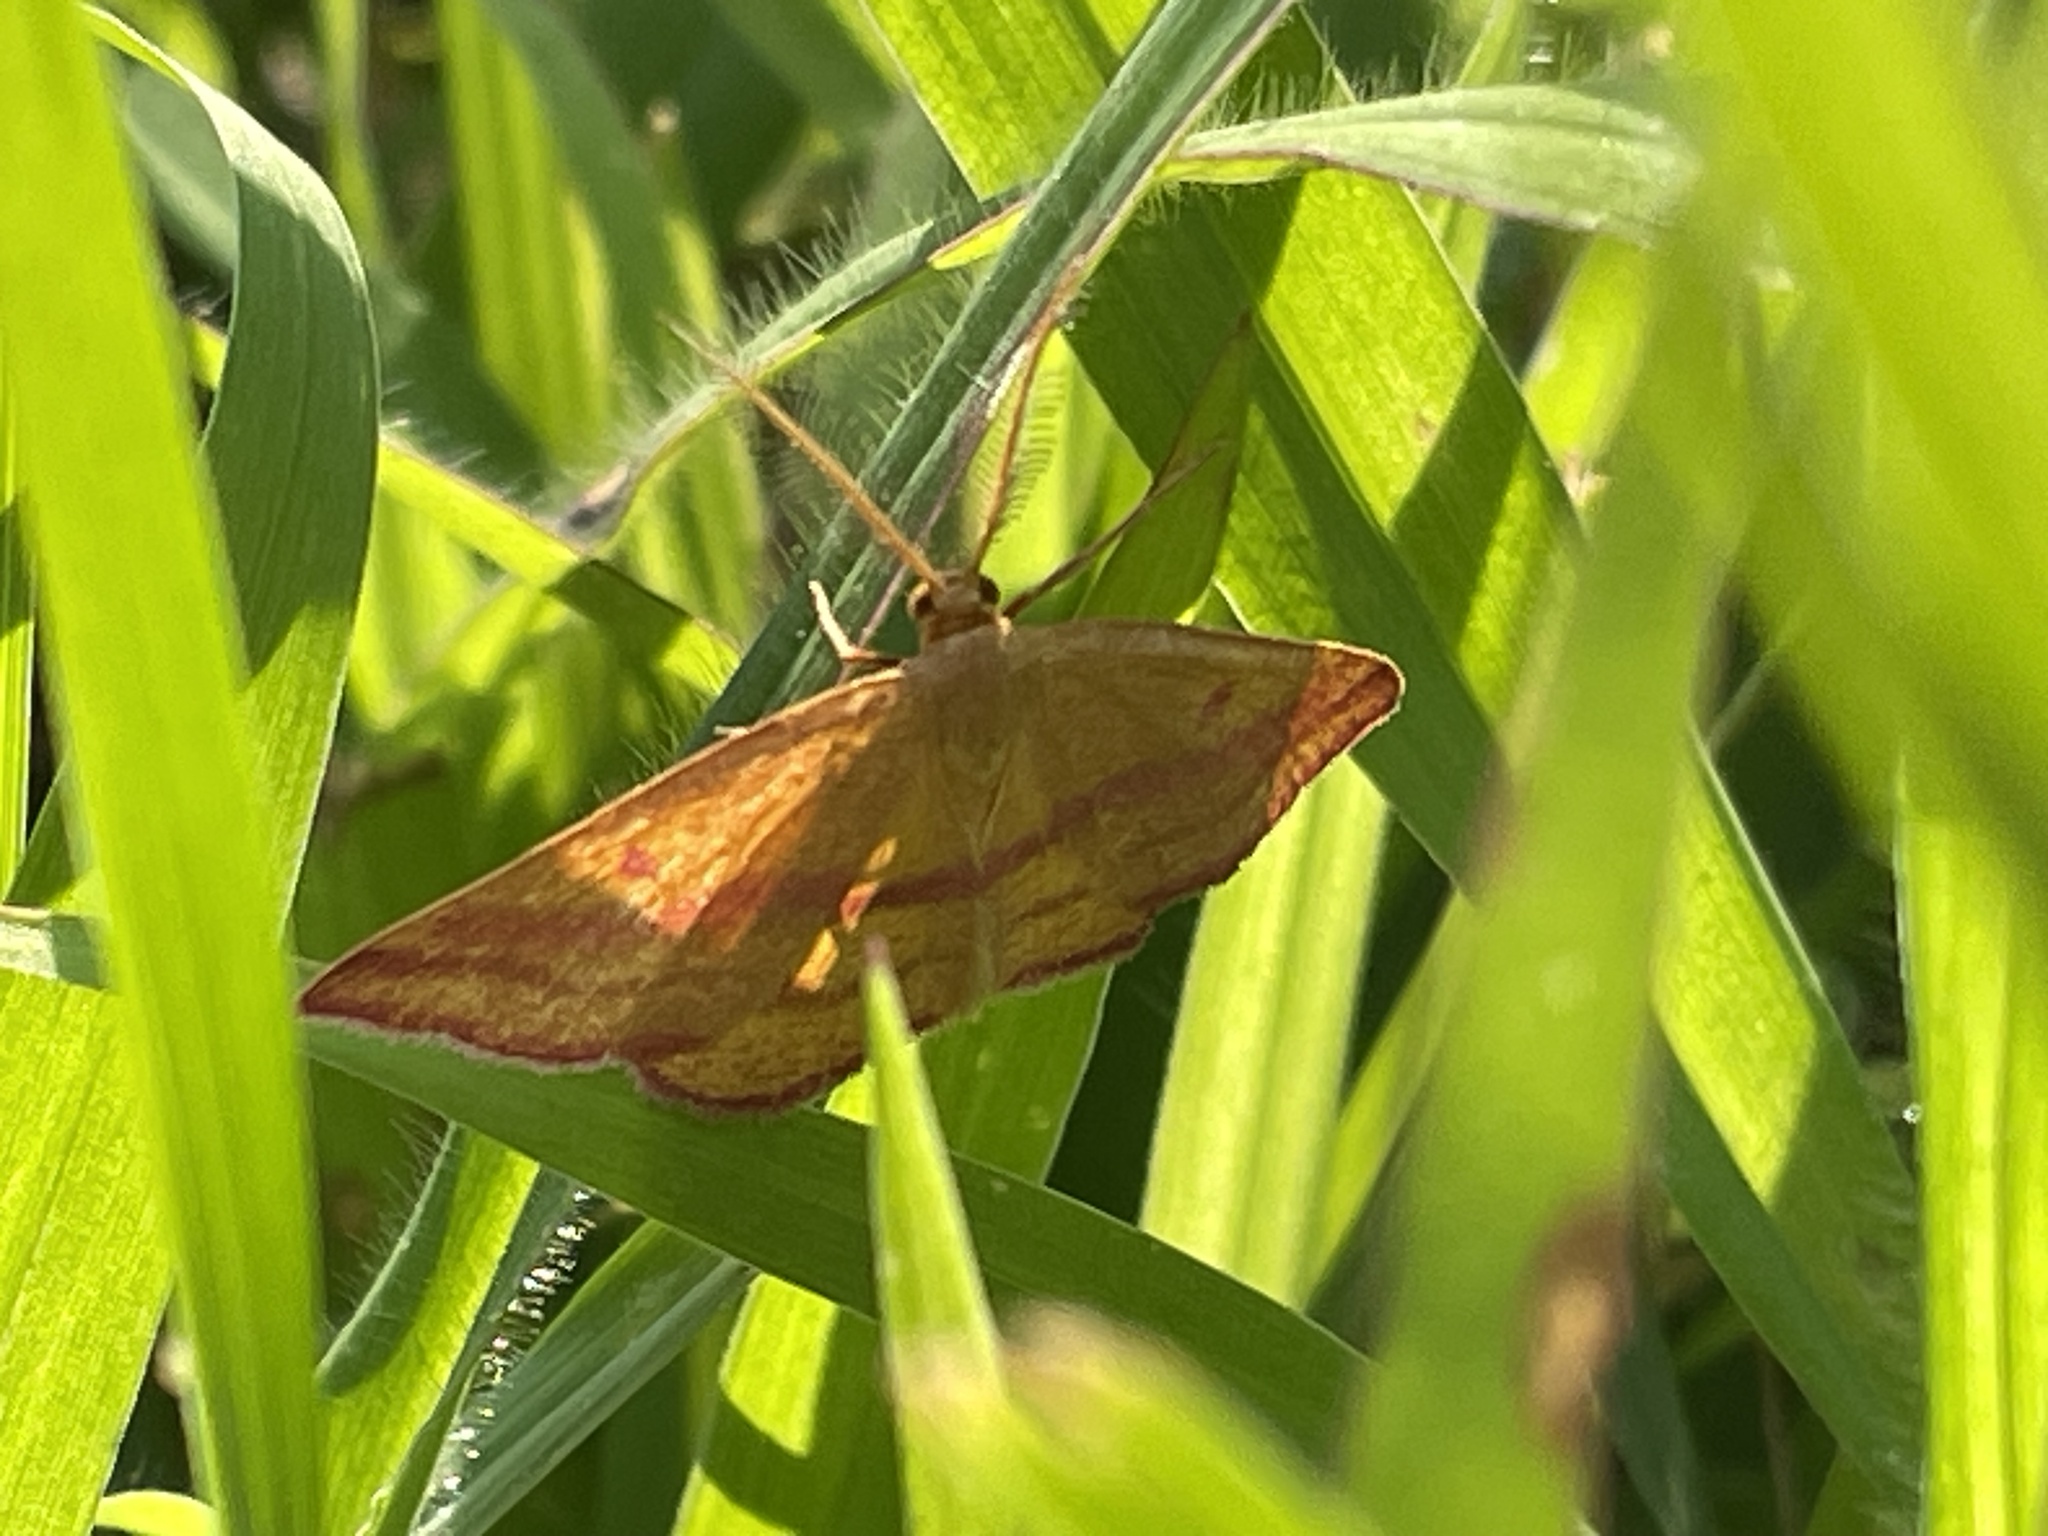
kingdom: Animalia
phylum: Arthropoda
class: Insecta
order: Lepidoptera
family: Geometridae
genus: Haematopis
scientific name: Haematopis grataria
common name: Chickweed geometer
